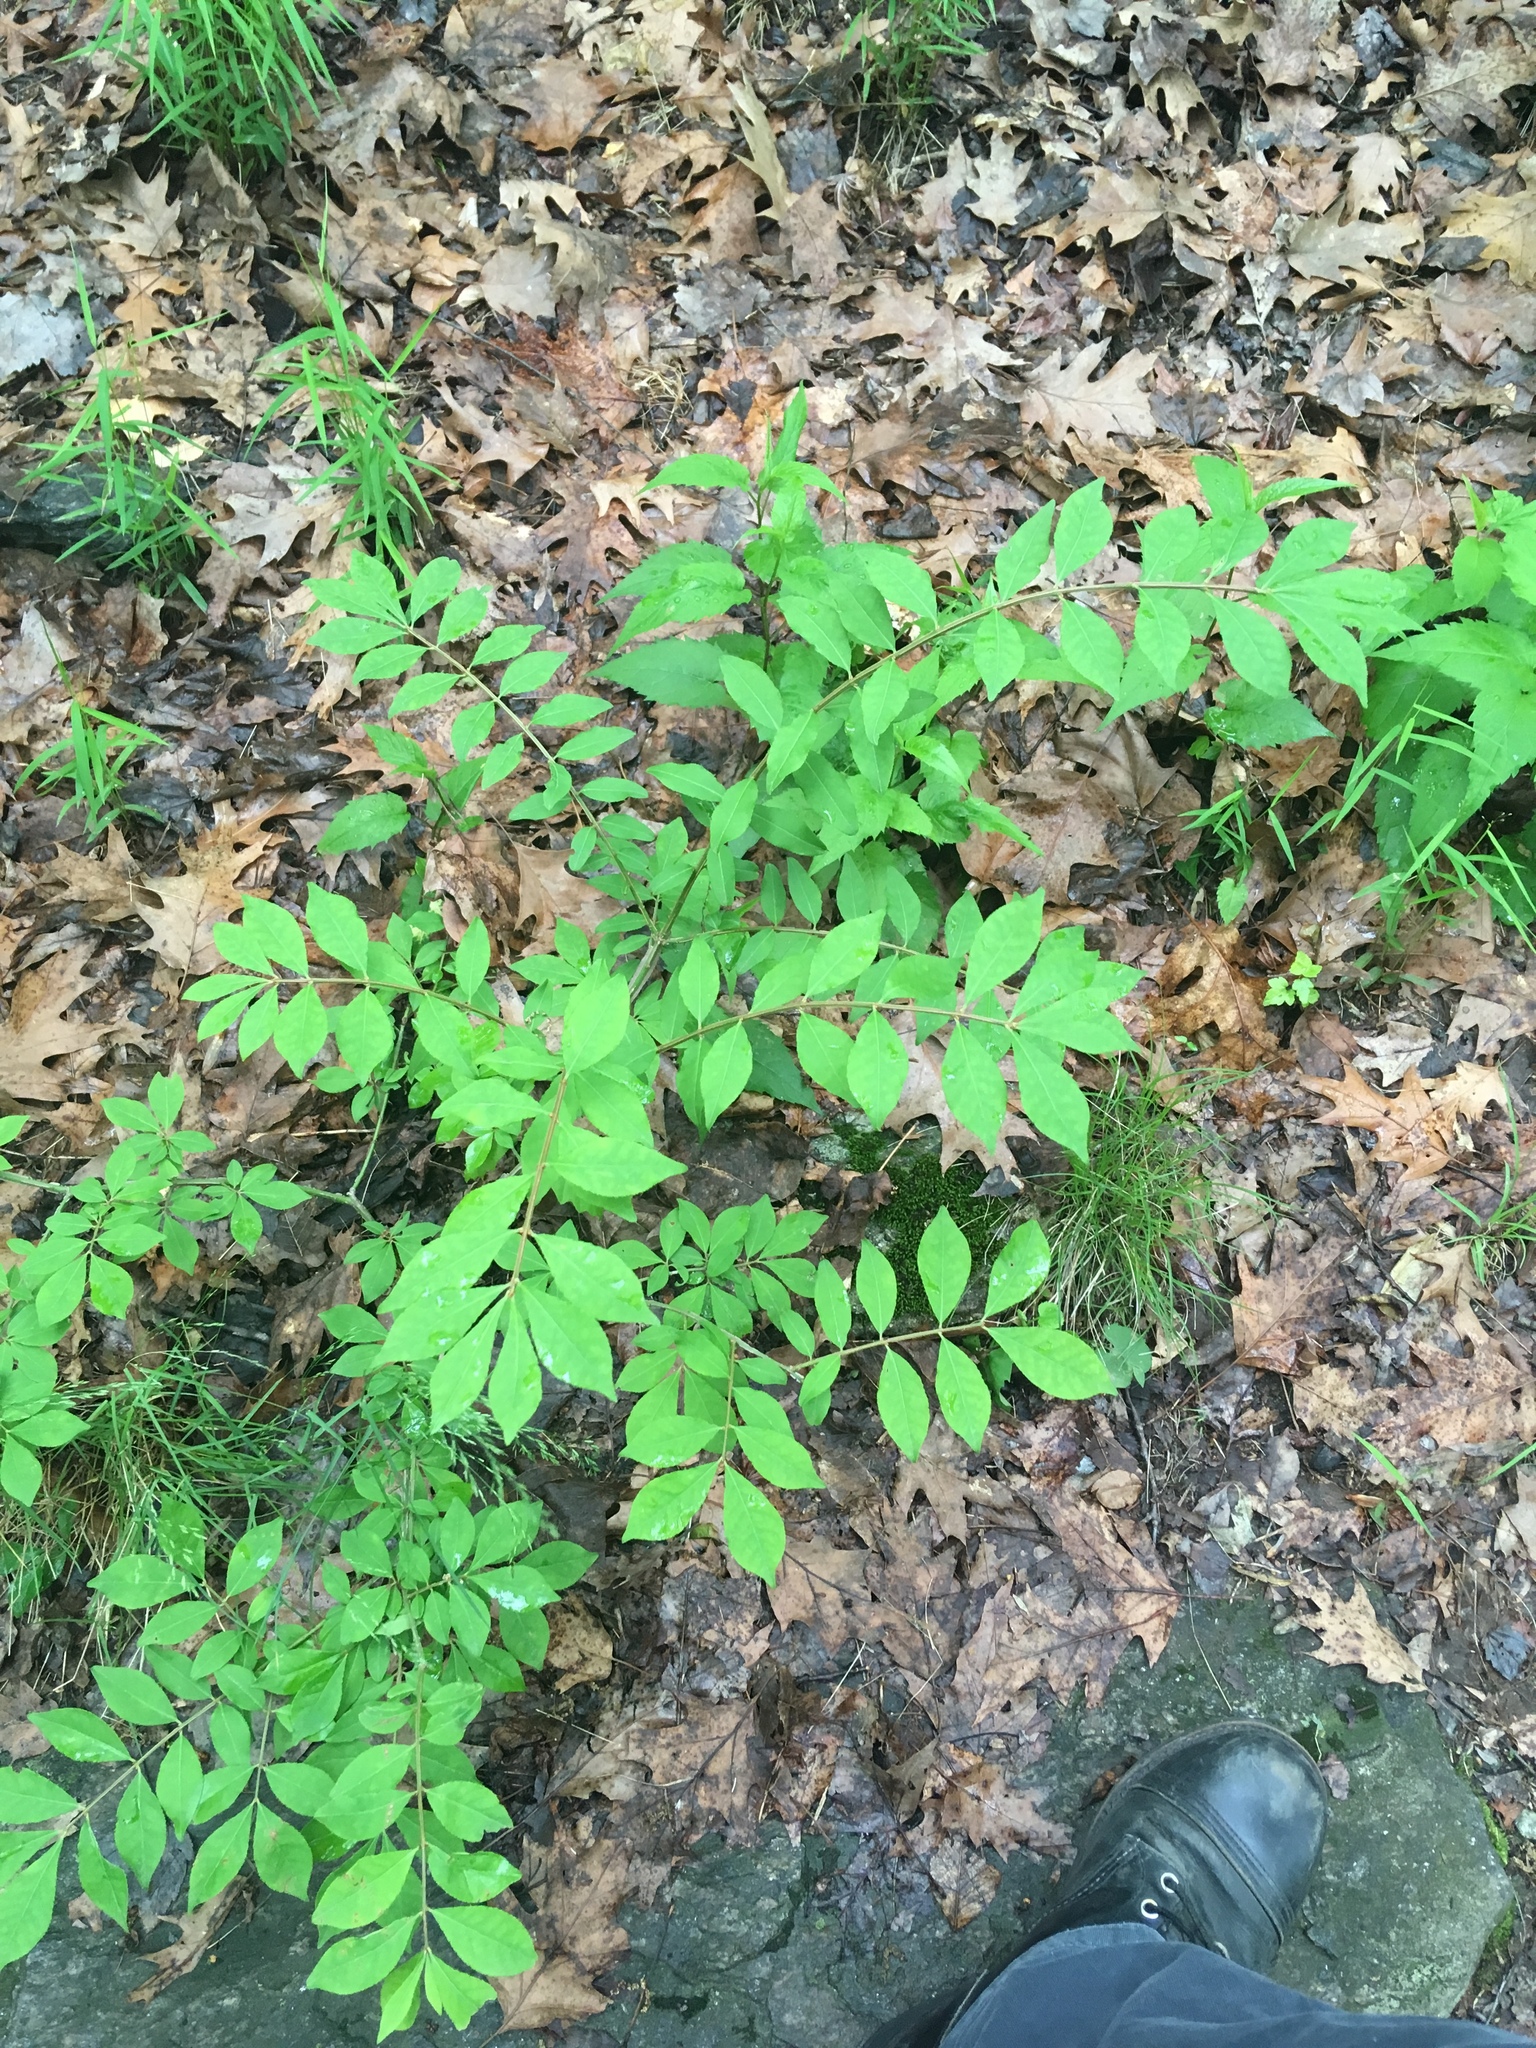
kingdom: Plantae
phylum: Tracheophyta
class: Magnoliopsida
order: Celastrales
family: Celastraceae
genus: Euonymus
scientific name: Euonymus alatus
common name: Winged euonymus
